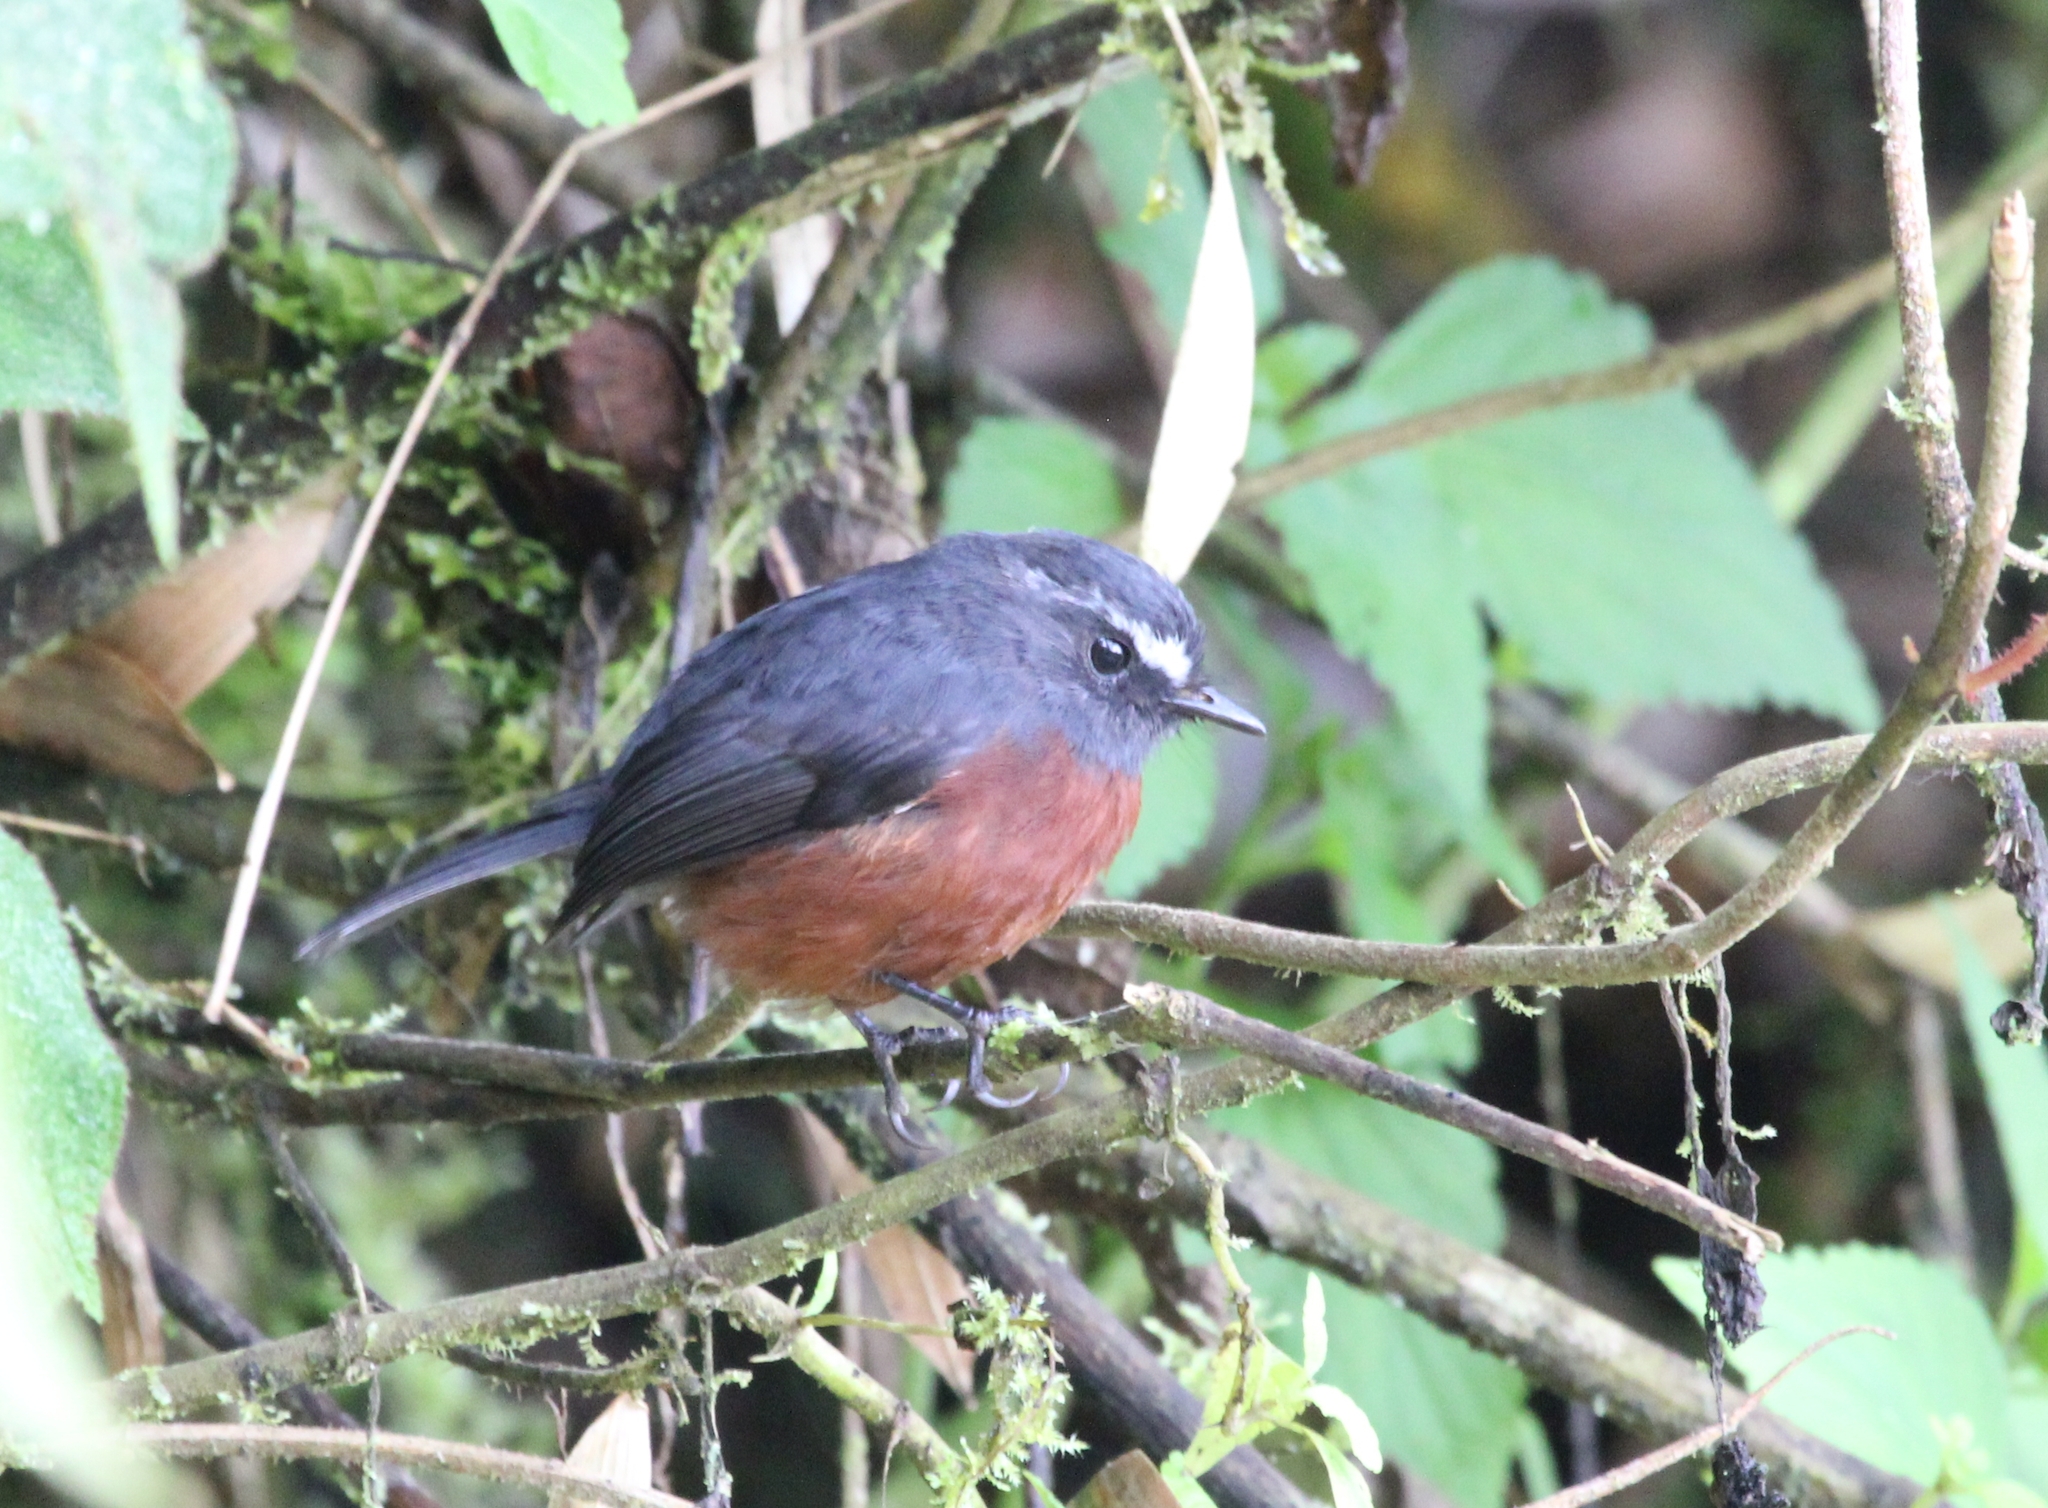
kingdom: Animalia
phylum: Chordata
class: Aves
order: Passeriformes
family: Tyrannidae
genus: Ochthoeca
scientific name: Ochthoeca cinnamomeiventris
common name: Slaty-backed chat-tyrant
